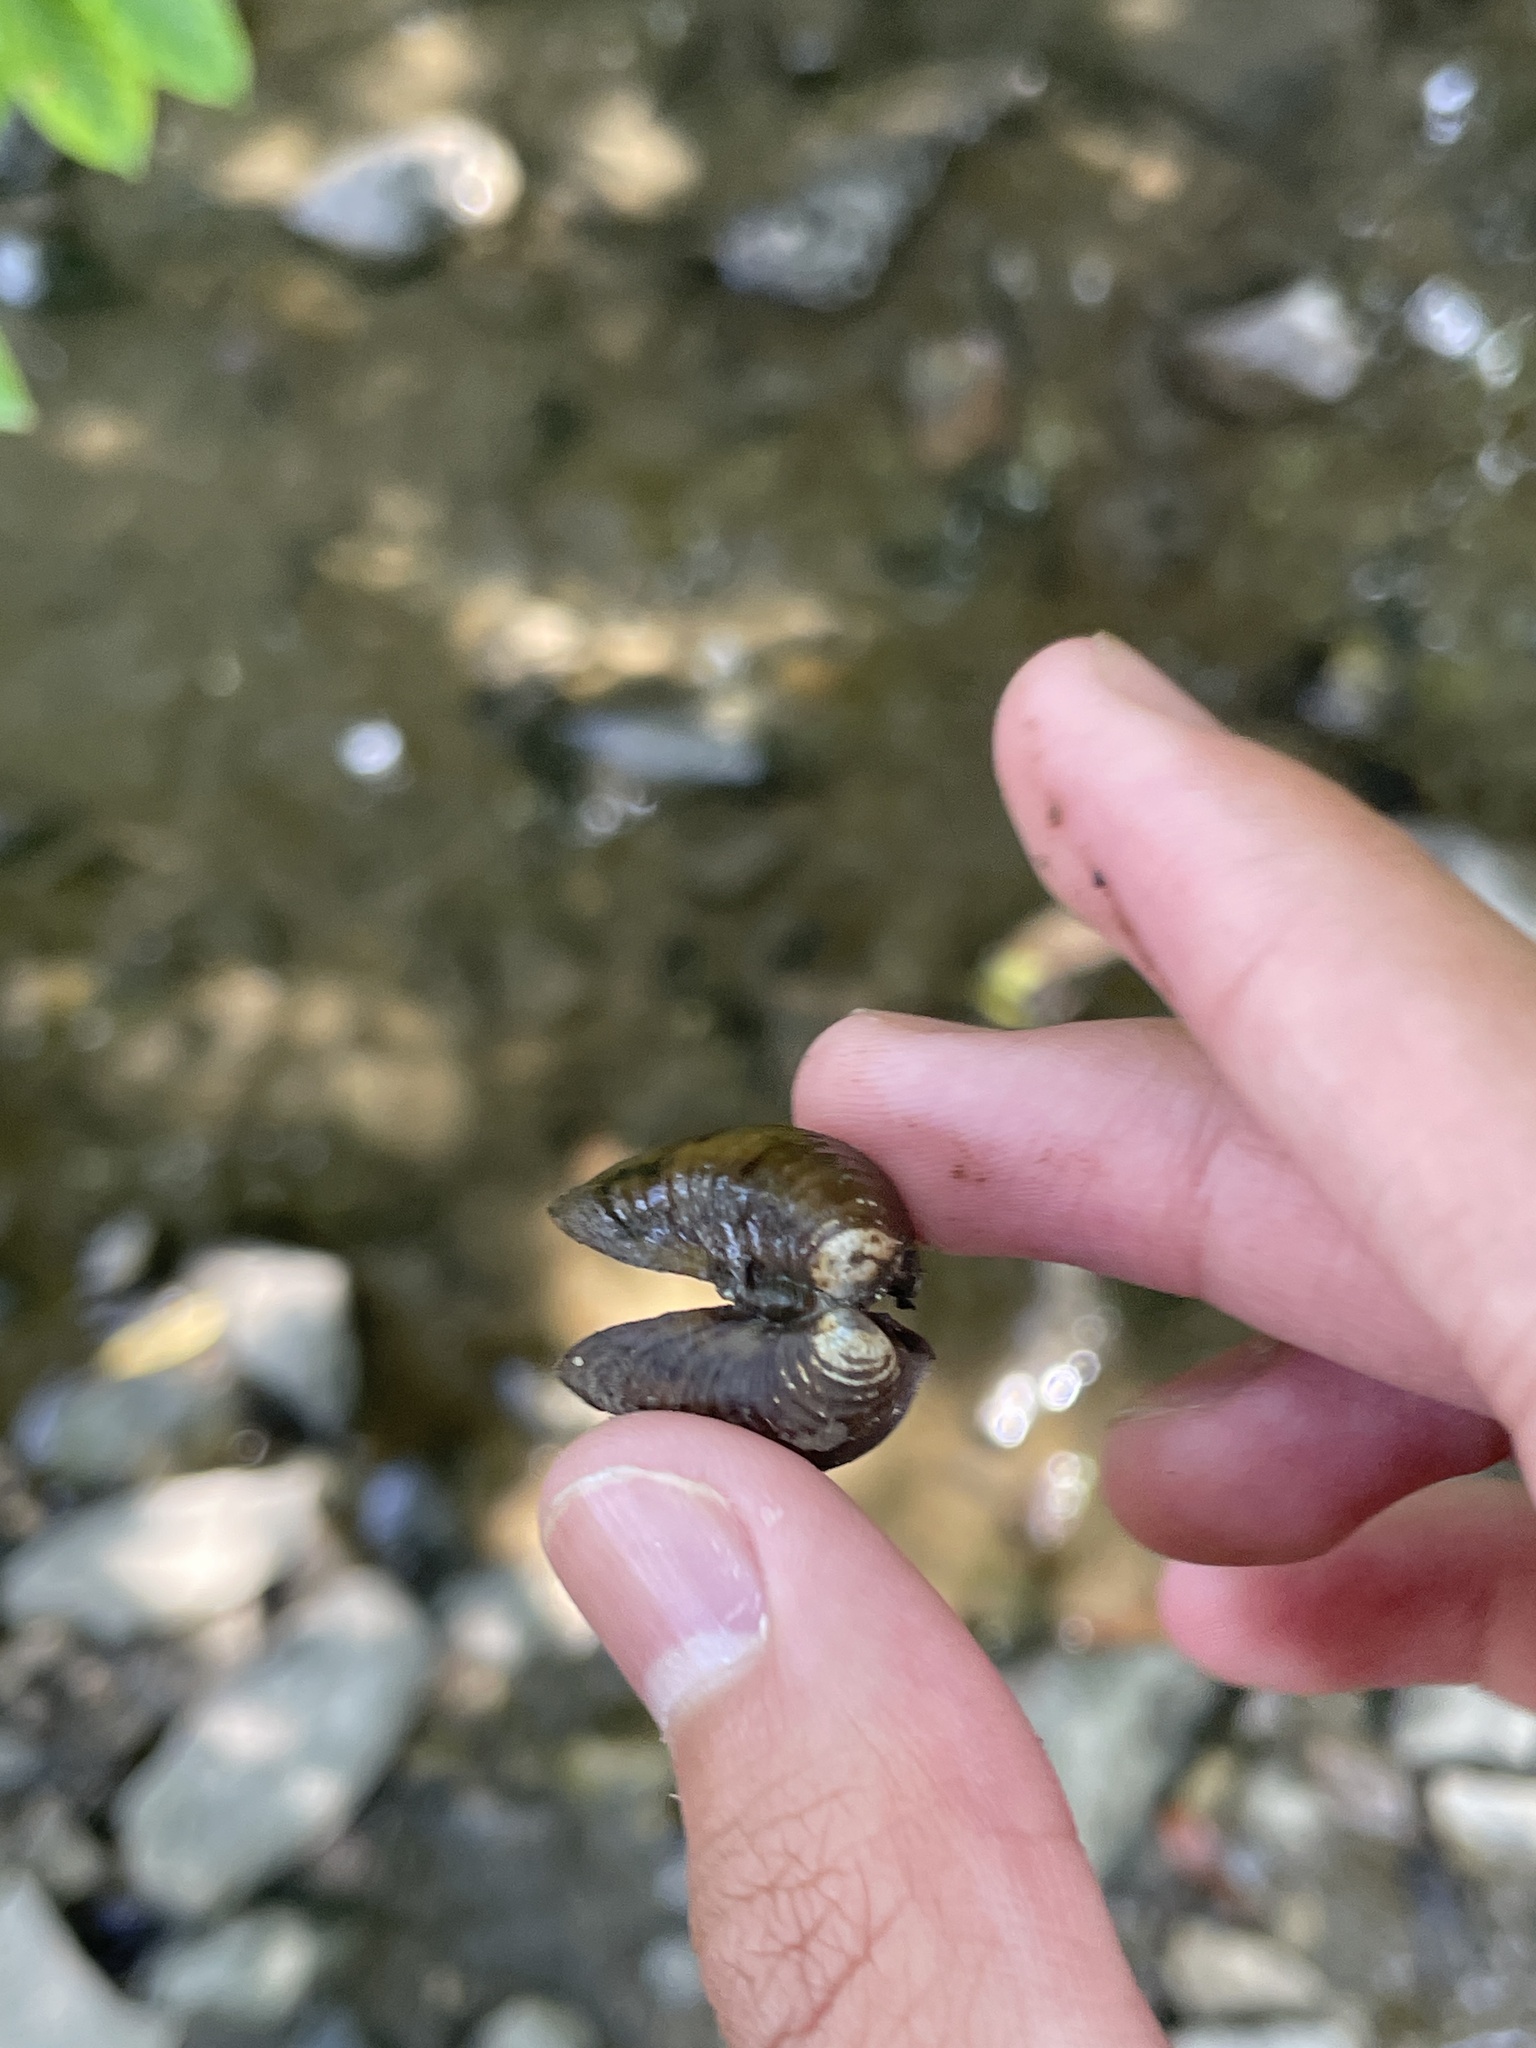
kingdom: Animalia
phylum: Mollusca
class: Bivalvia
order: Venerida
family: Cyrenidae
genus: Corbicula
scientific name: Corbicula fluminea
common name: Asian clam
